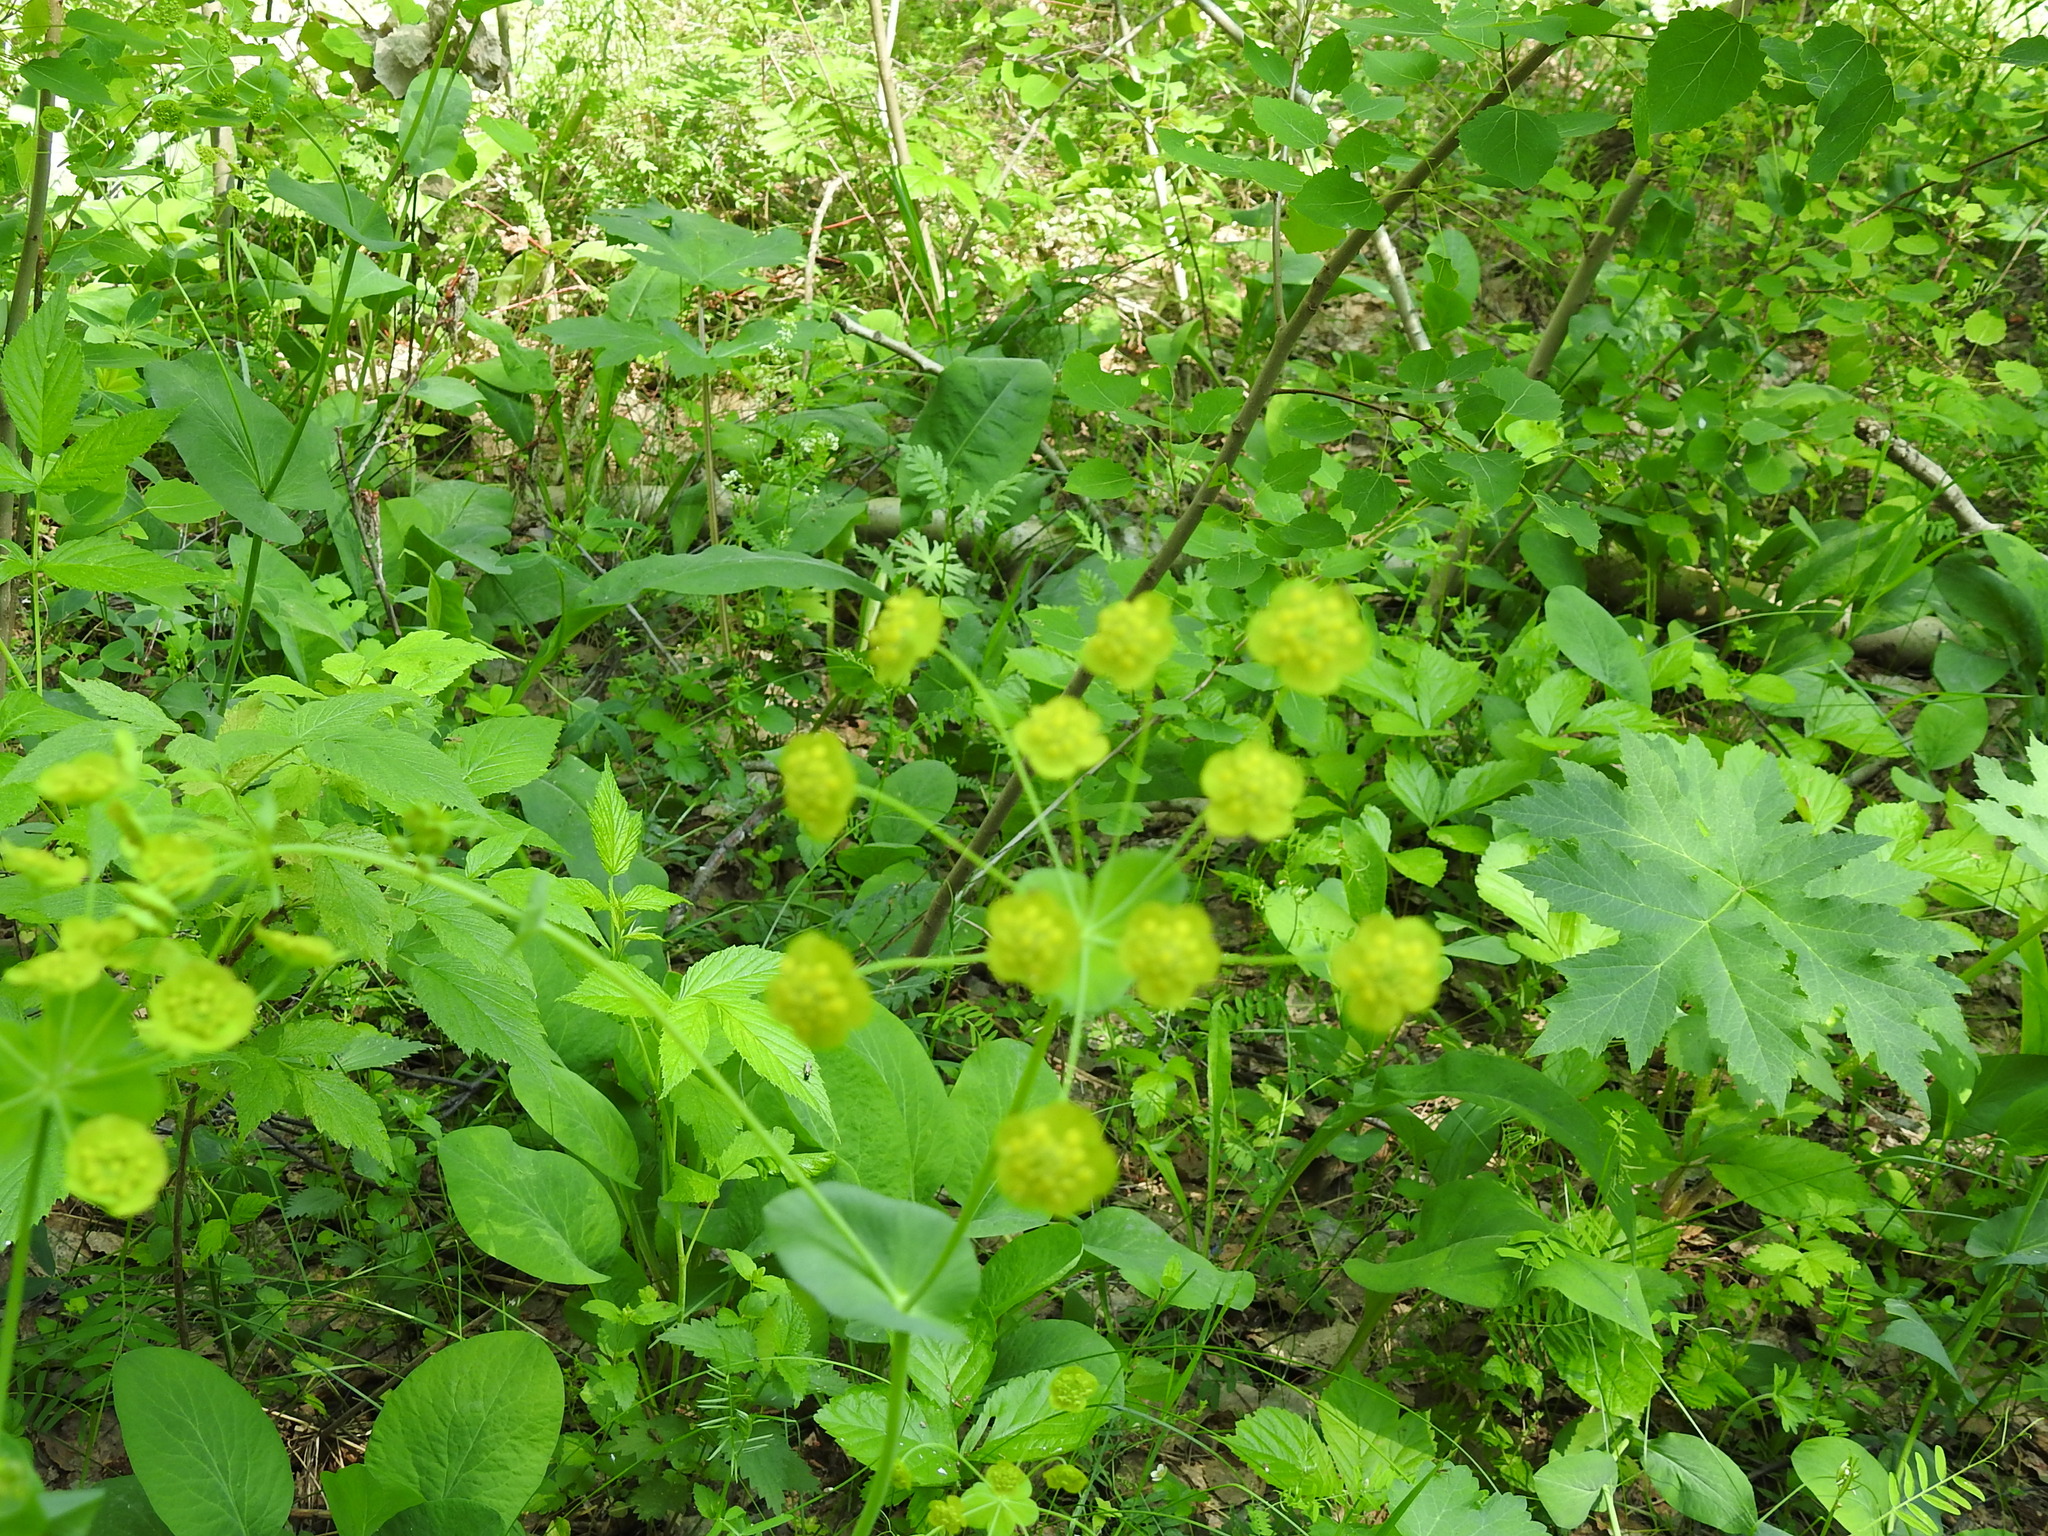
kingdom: Plantae
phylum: Tracheophyta
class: Magnoliopsida
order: Apiales
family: Apiaceae
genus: Bupleurum
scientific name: Bupleurum aureum
